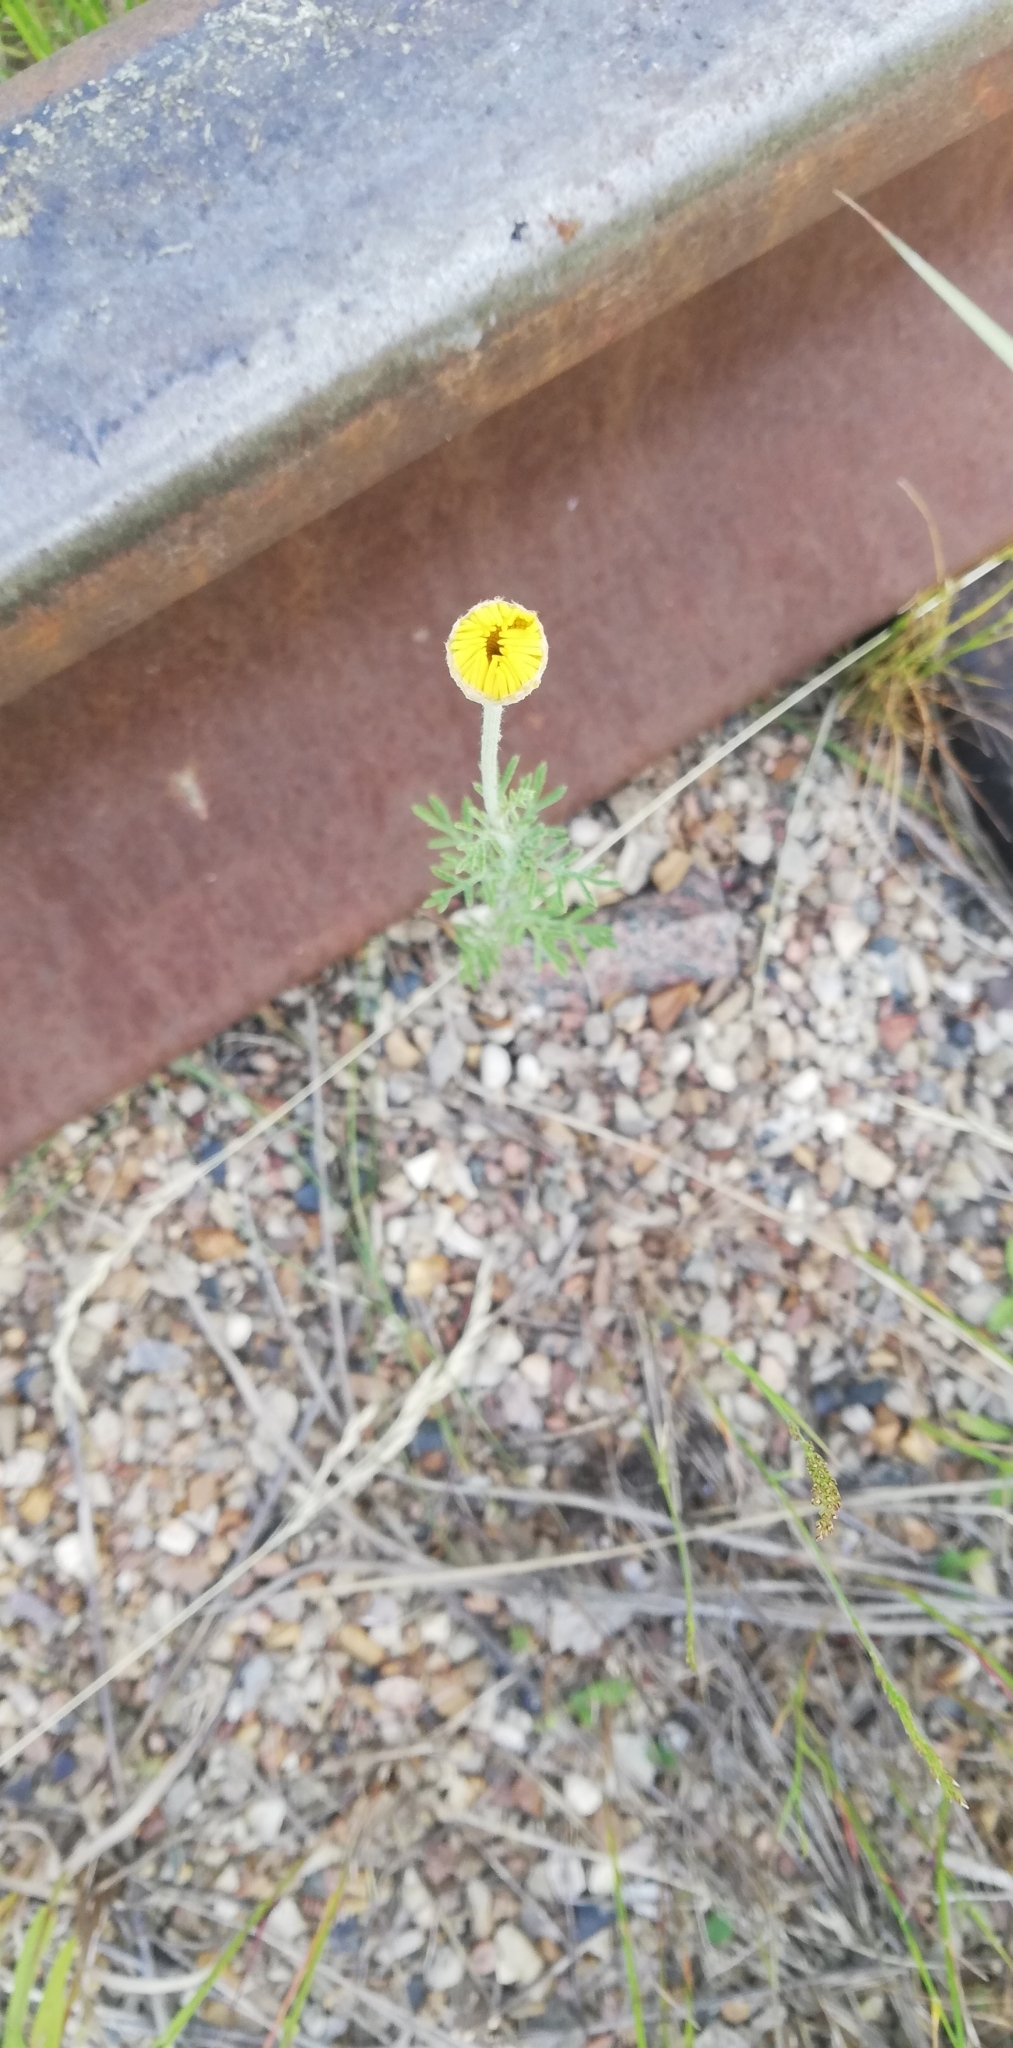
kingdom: Plantae
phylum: Tracheophyta
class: Magnoliopsida
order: Asterales
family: Asteraceae
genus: Cota
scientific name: Cota tinctoria
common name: Golden chamomile
